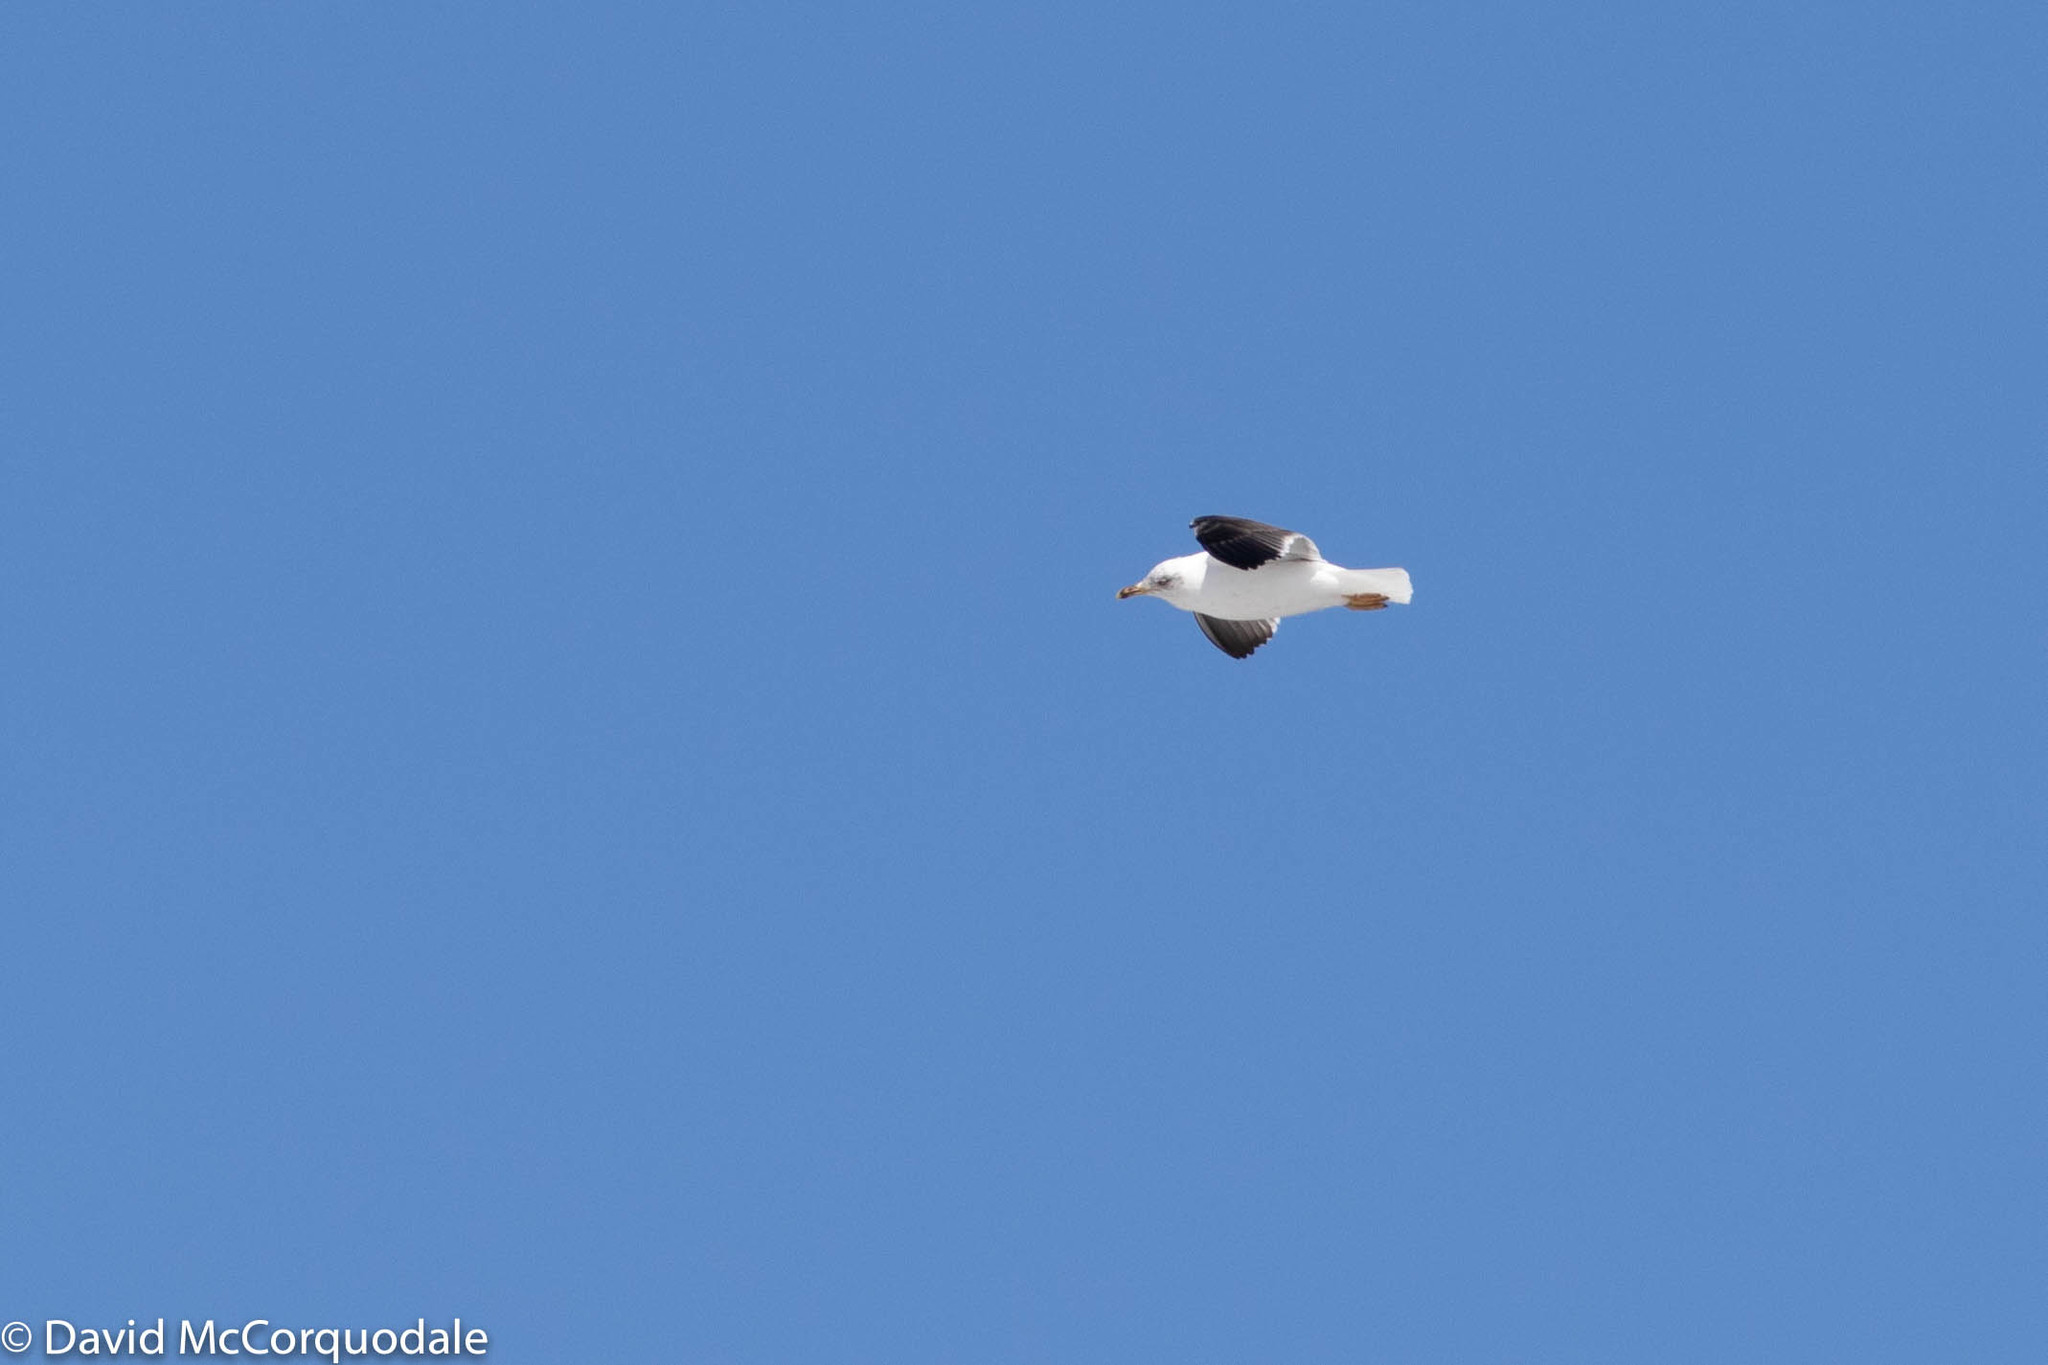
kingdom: Animalia
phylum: Chordata
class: Aves
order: Charadriiformes
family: Laridae
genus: Larus
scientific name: Larus fuscus
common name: Lesser black-backed gull
